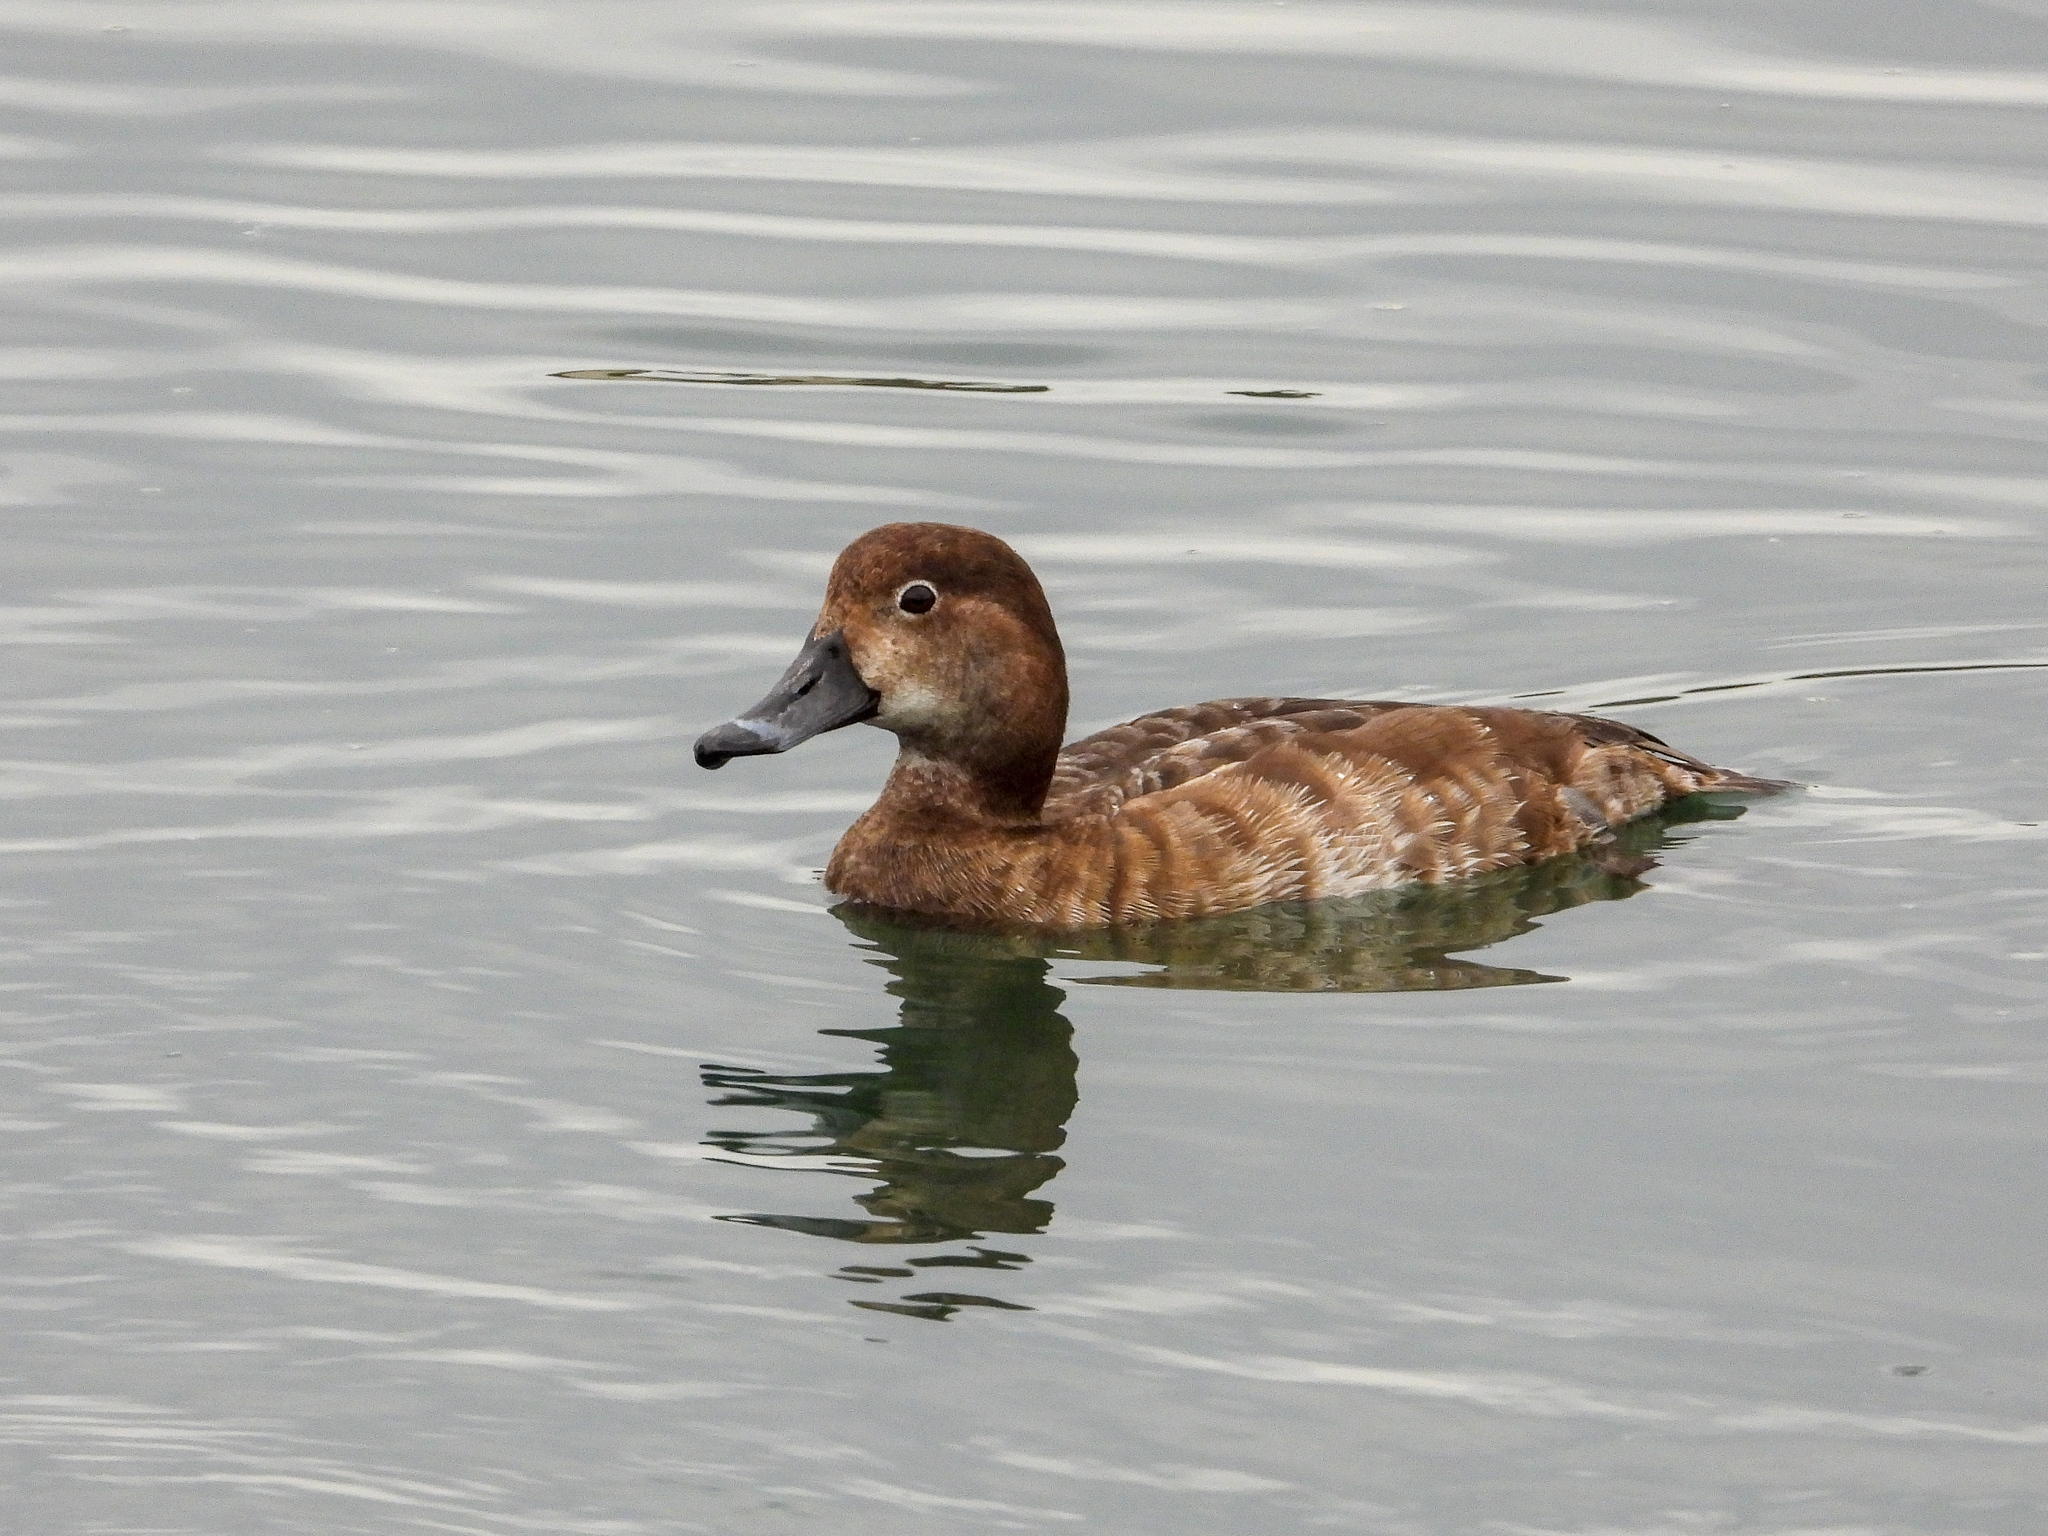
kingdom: Animalia
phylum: Chordata
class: Aves
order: Anseriformes
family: Anatidae
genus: Aythya
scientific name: Aythya americana
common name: Redhead
